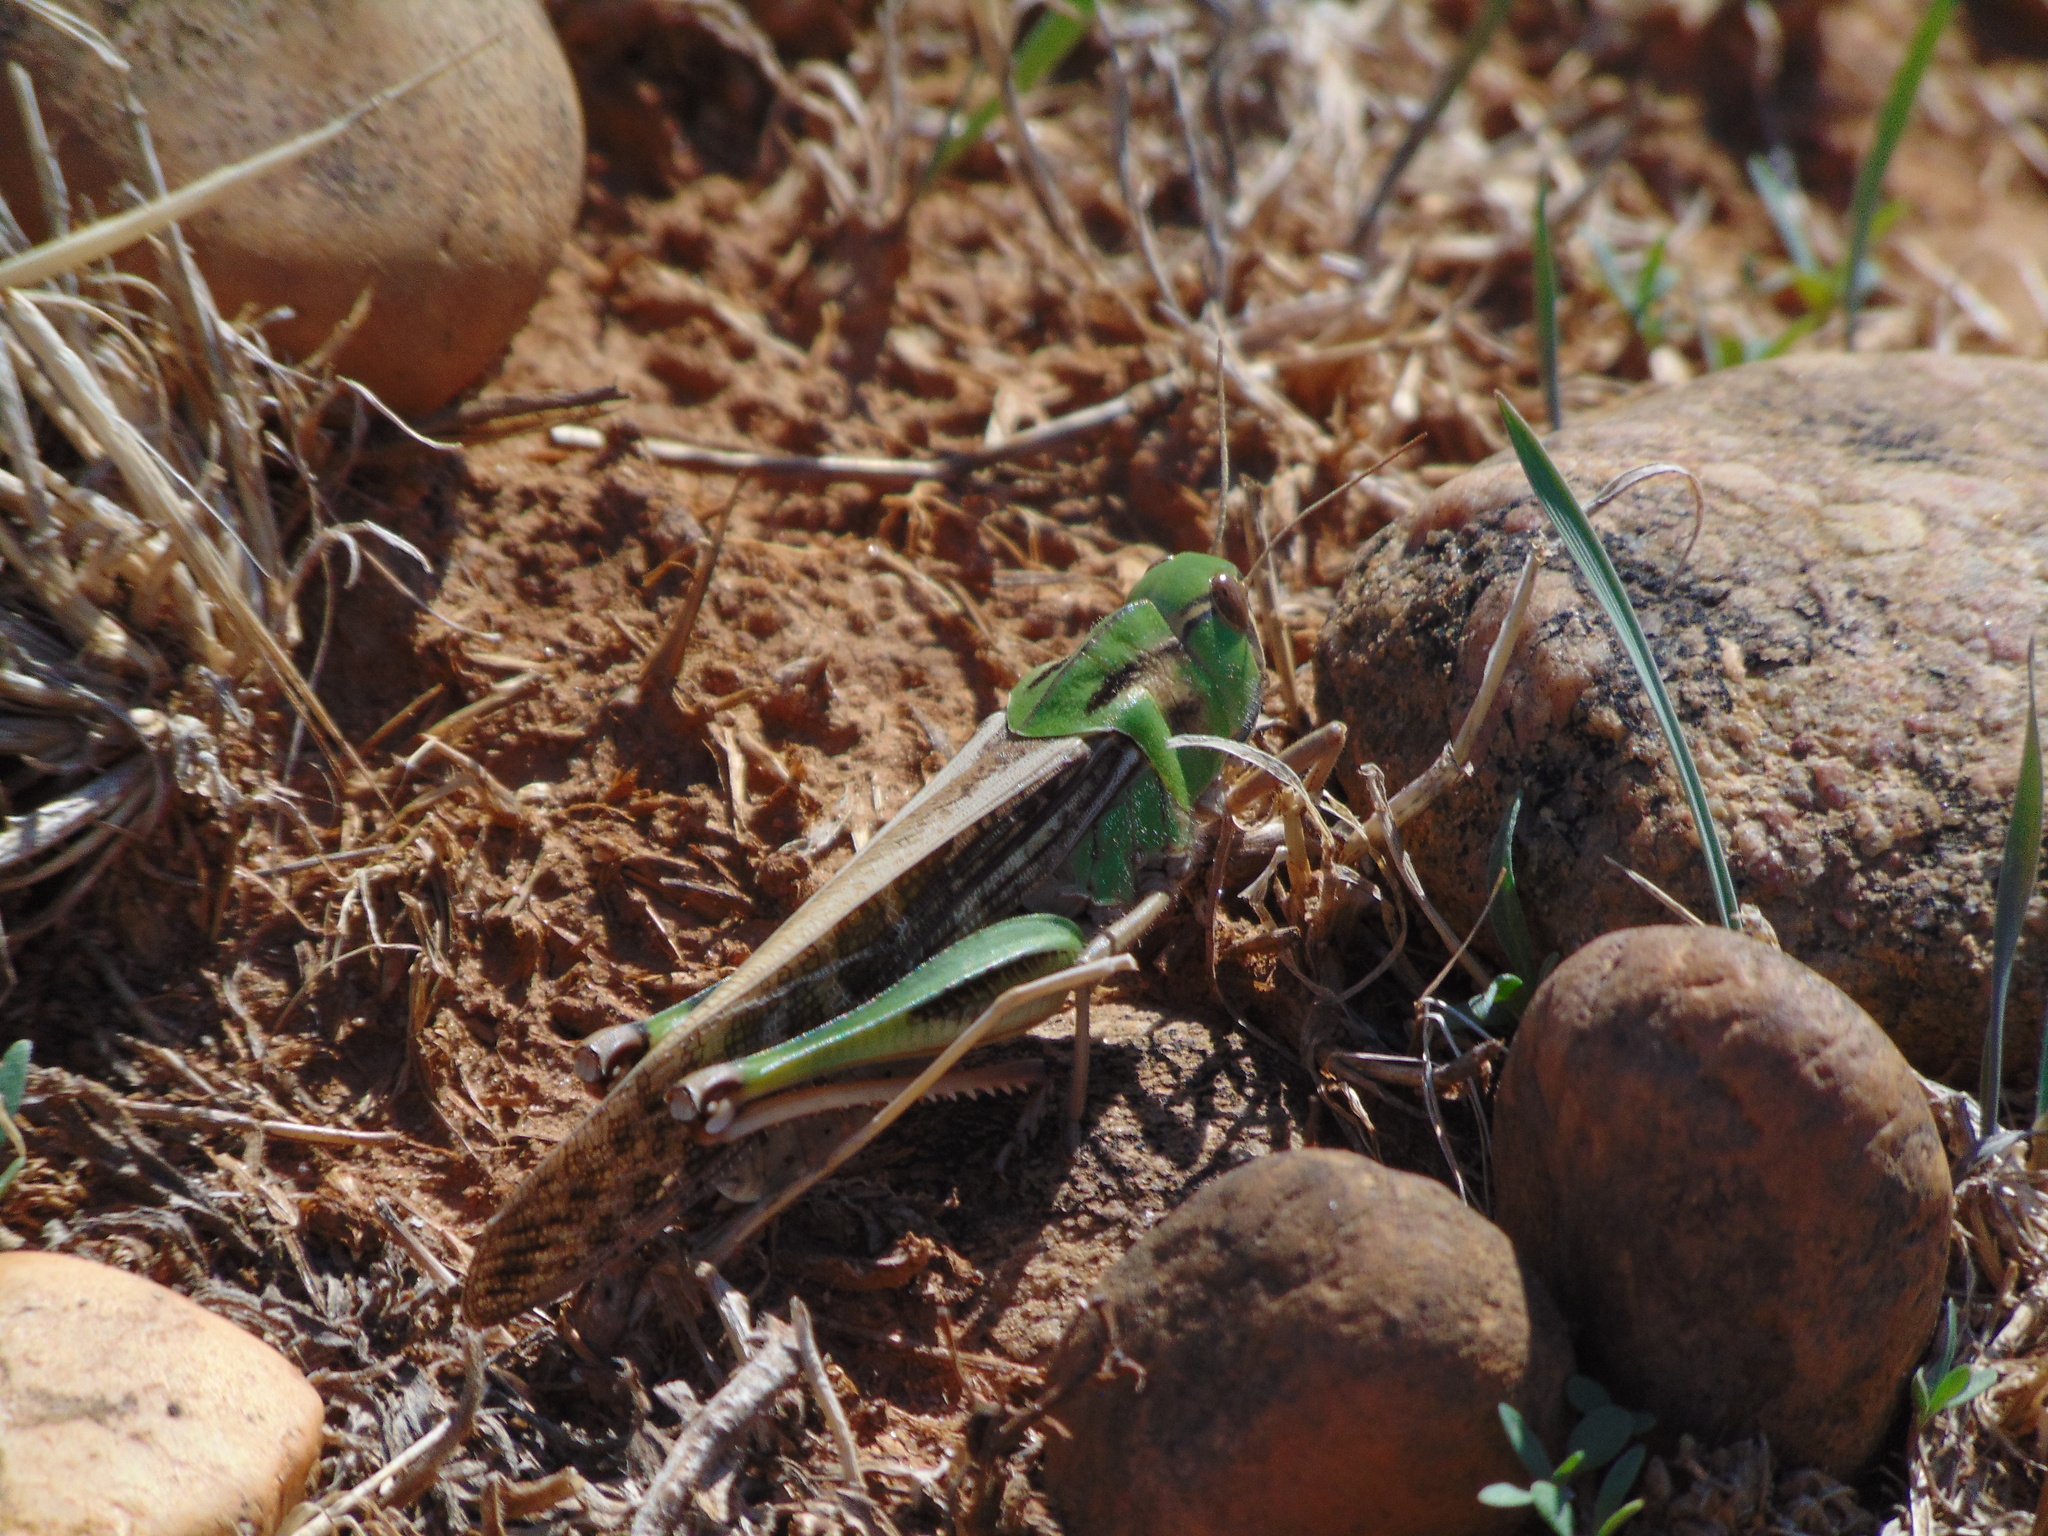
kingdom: Animalia
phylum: Arthropoda
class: Insecta
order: Orthoptera
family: Acrididae
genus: Locusta
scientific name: Locusta migratoria
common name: Migratory locust
